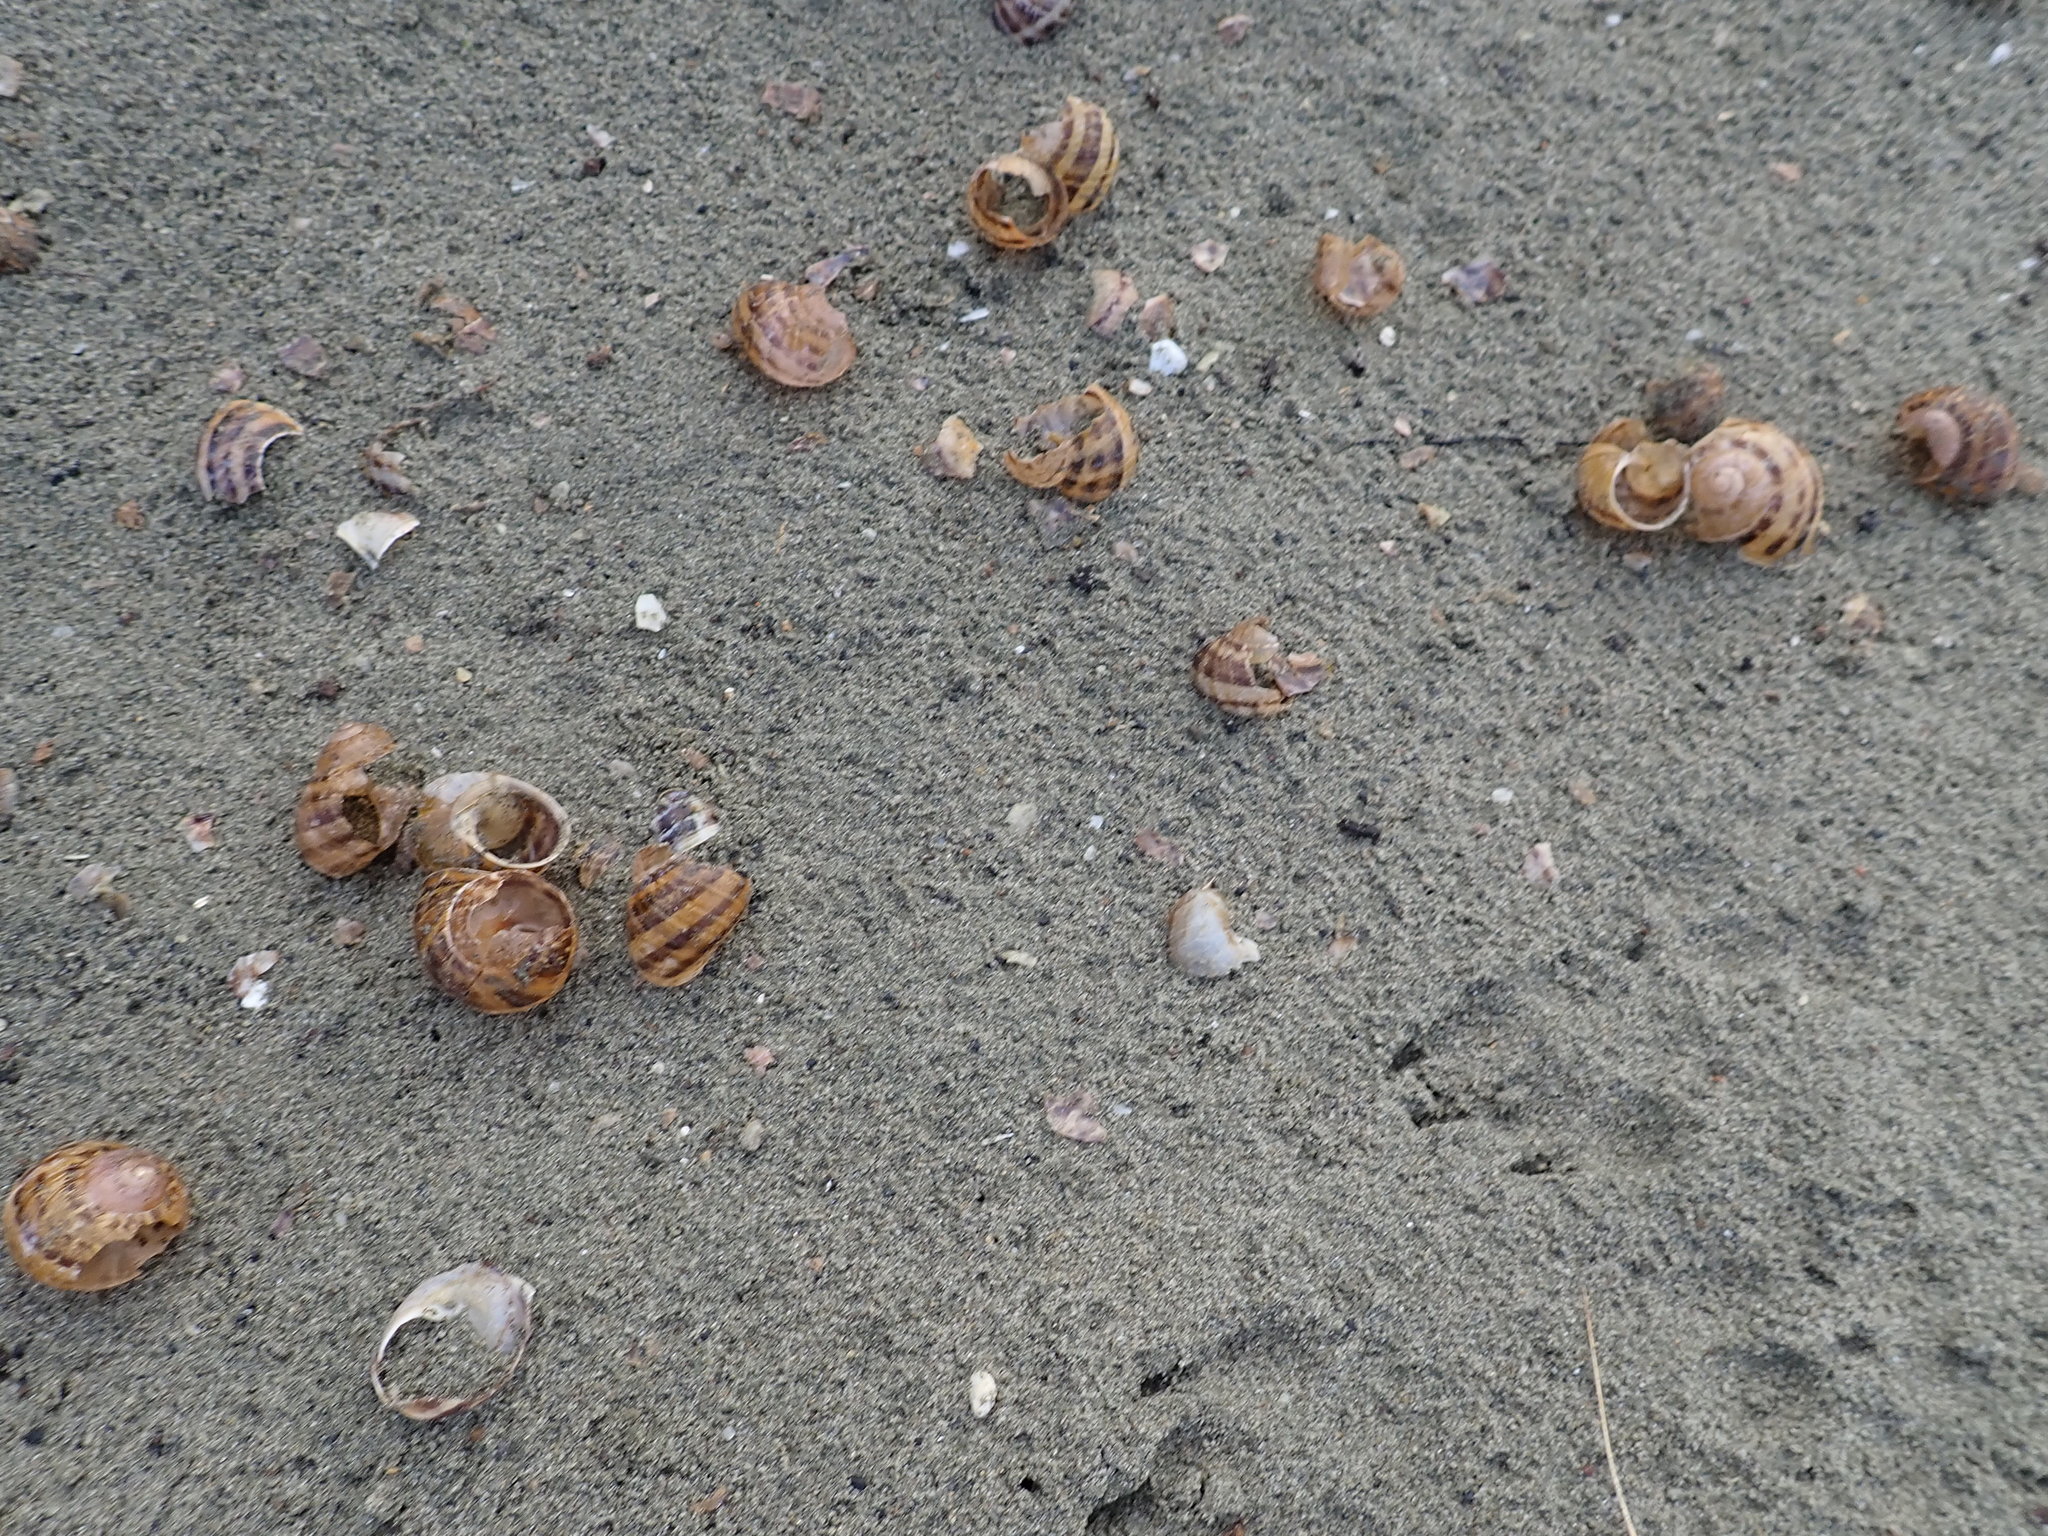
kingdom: Animalia
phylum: Mollusca
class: Gastropoda
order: Stylommatophora
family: Helicidae
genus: Cornu
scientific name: Cornu aspersum
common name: Brown garden snail
